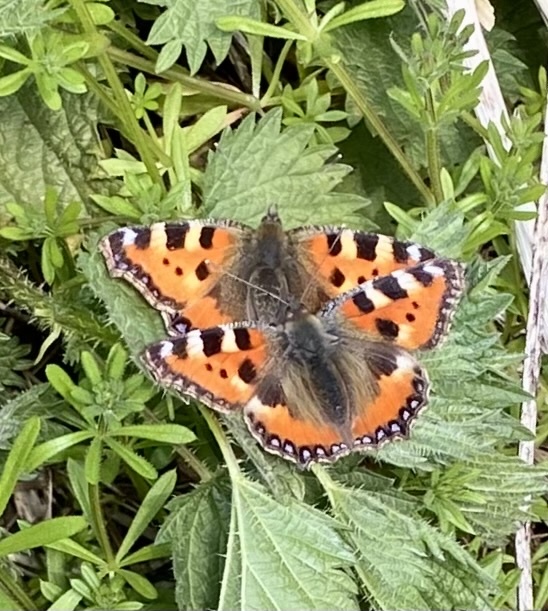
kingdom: Animalia
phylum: Arthropoda
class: Insecta
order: Lepidoptera
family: Nymphalidae
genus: Aglais
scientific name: Aglais urticae
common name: Small tortoiseshell
